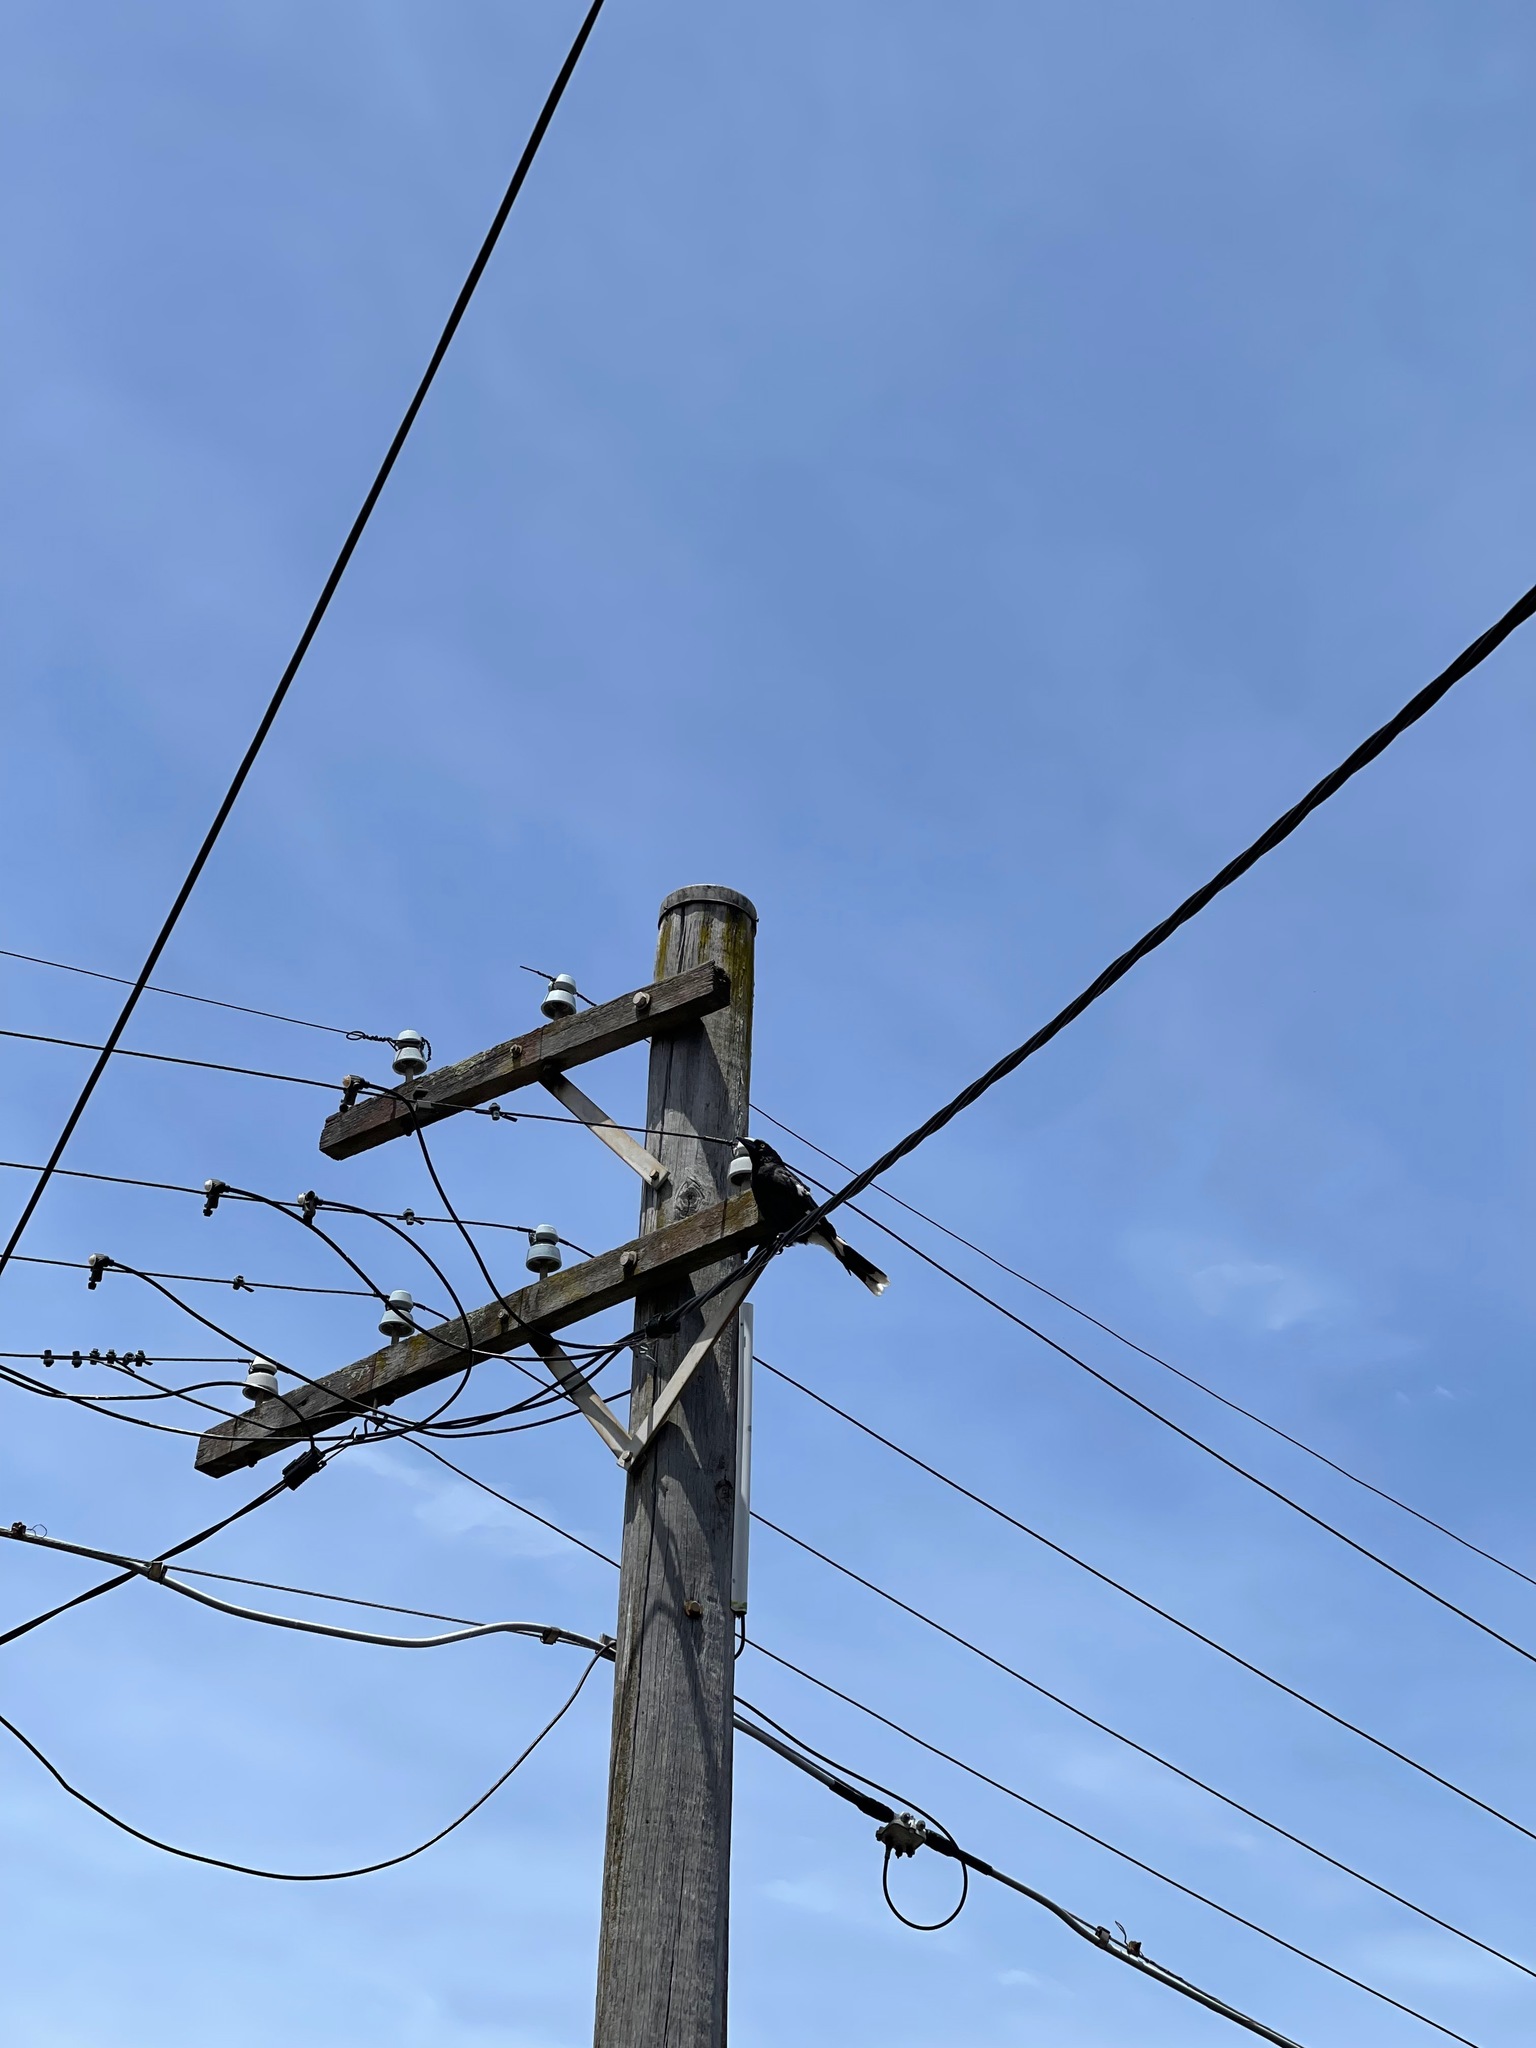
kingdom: Animalia
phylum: Chordata
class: Aves
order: Passeriformes
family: Cracticidae
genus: Strepera
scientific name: Strepera graculina
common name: Pied currawong
